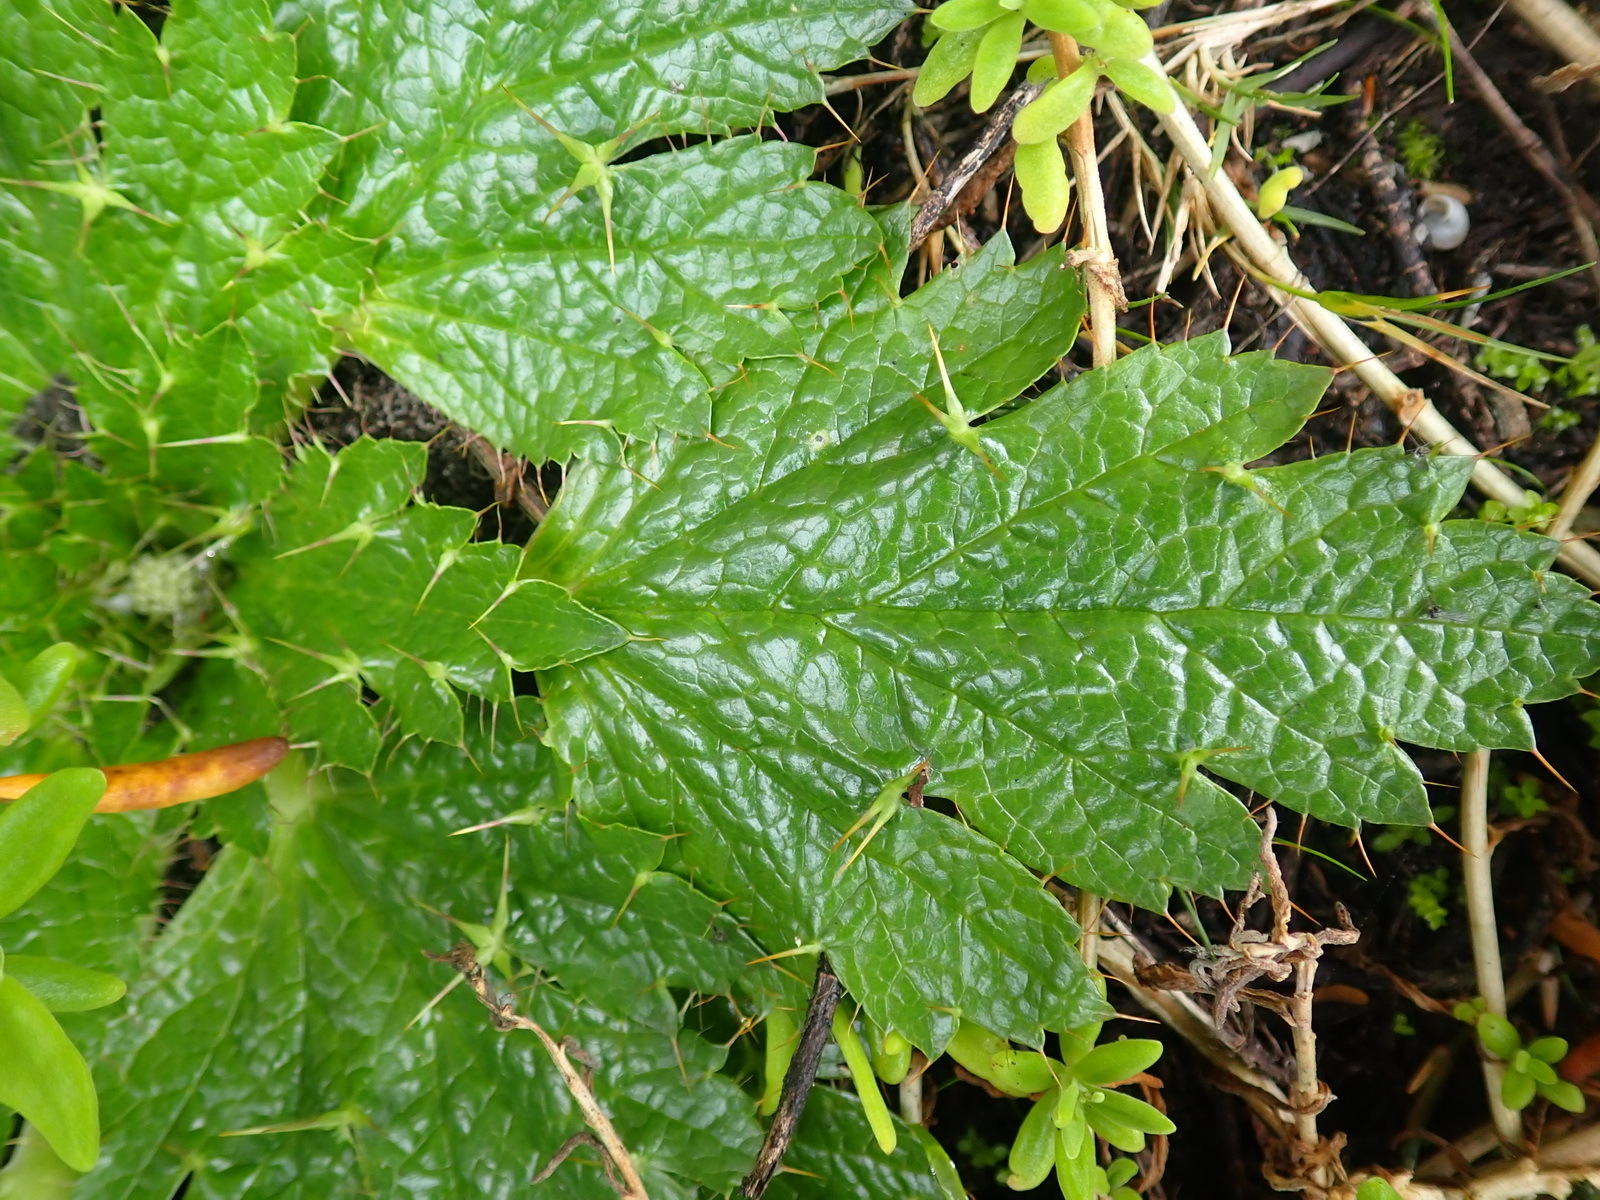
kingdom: Plantae
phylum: Tracheophyta
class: Magnoliopsida
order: Apiales
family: Apiaceae
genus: Arctopus
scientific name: Arctopus echinatus
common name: Platdoring
